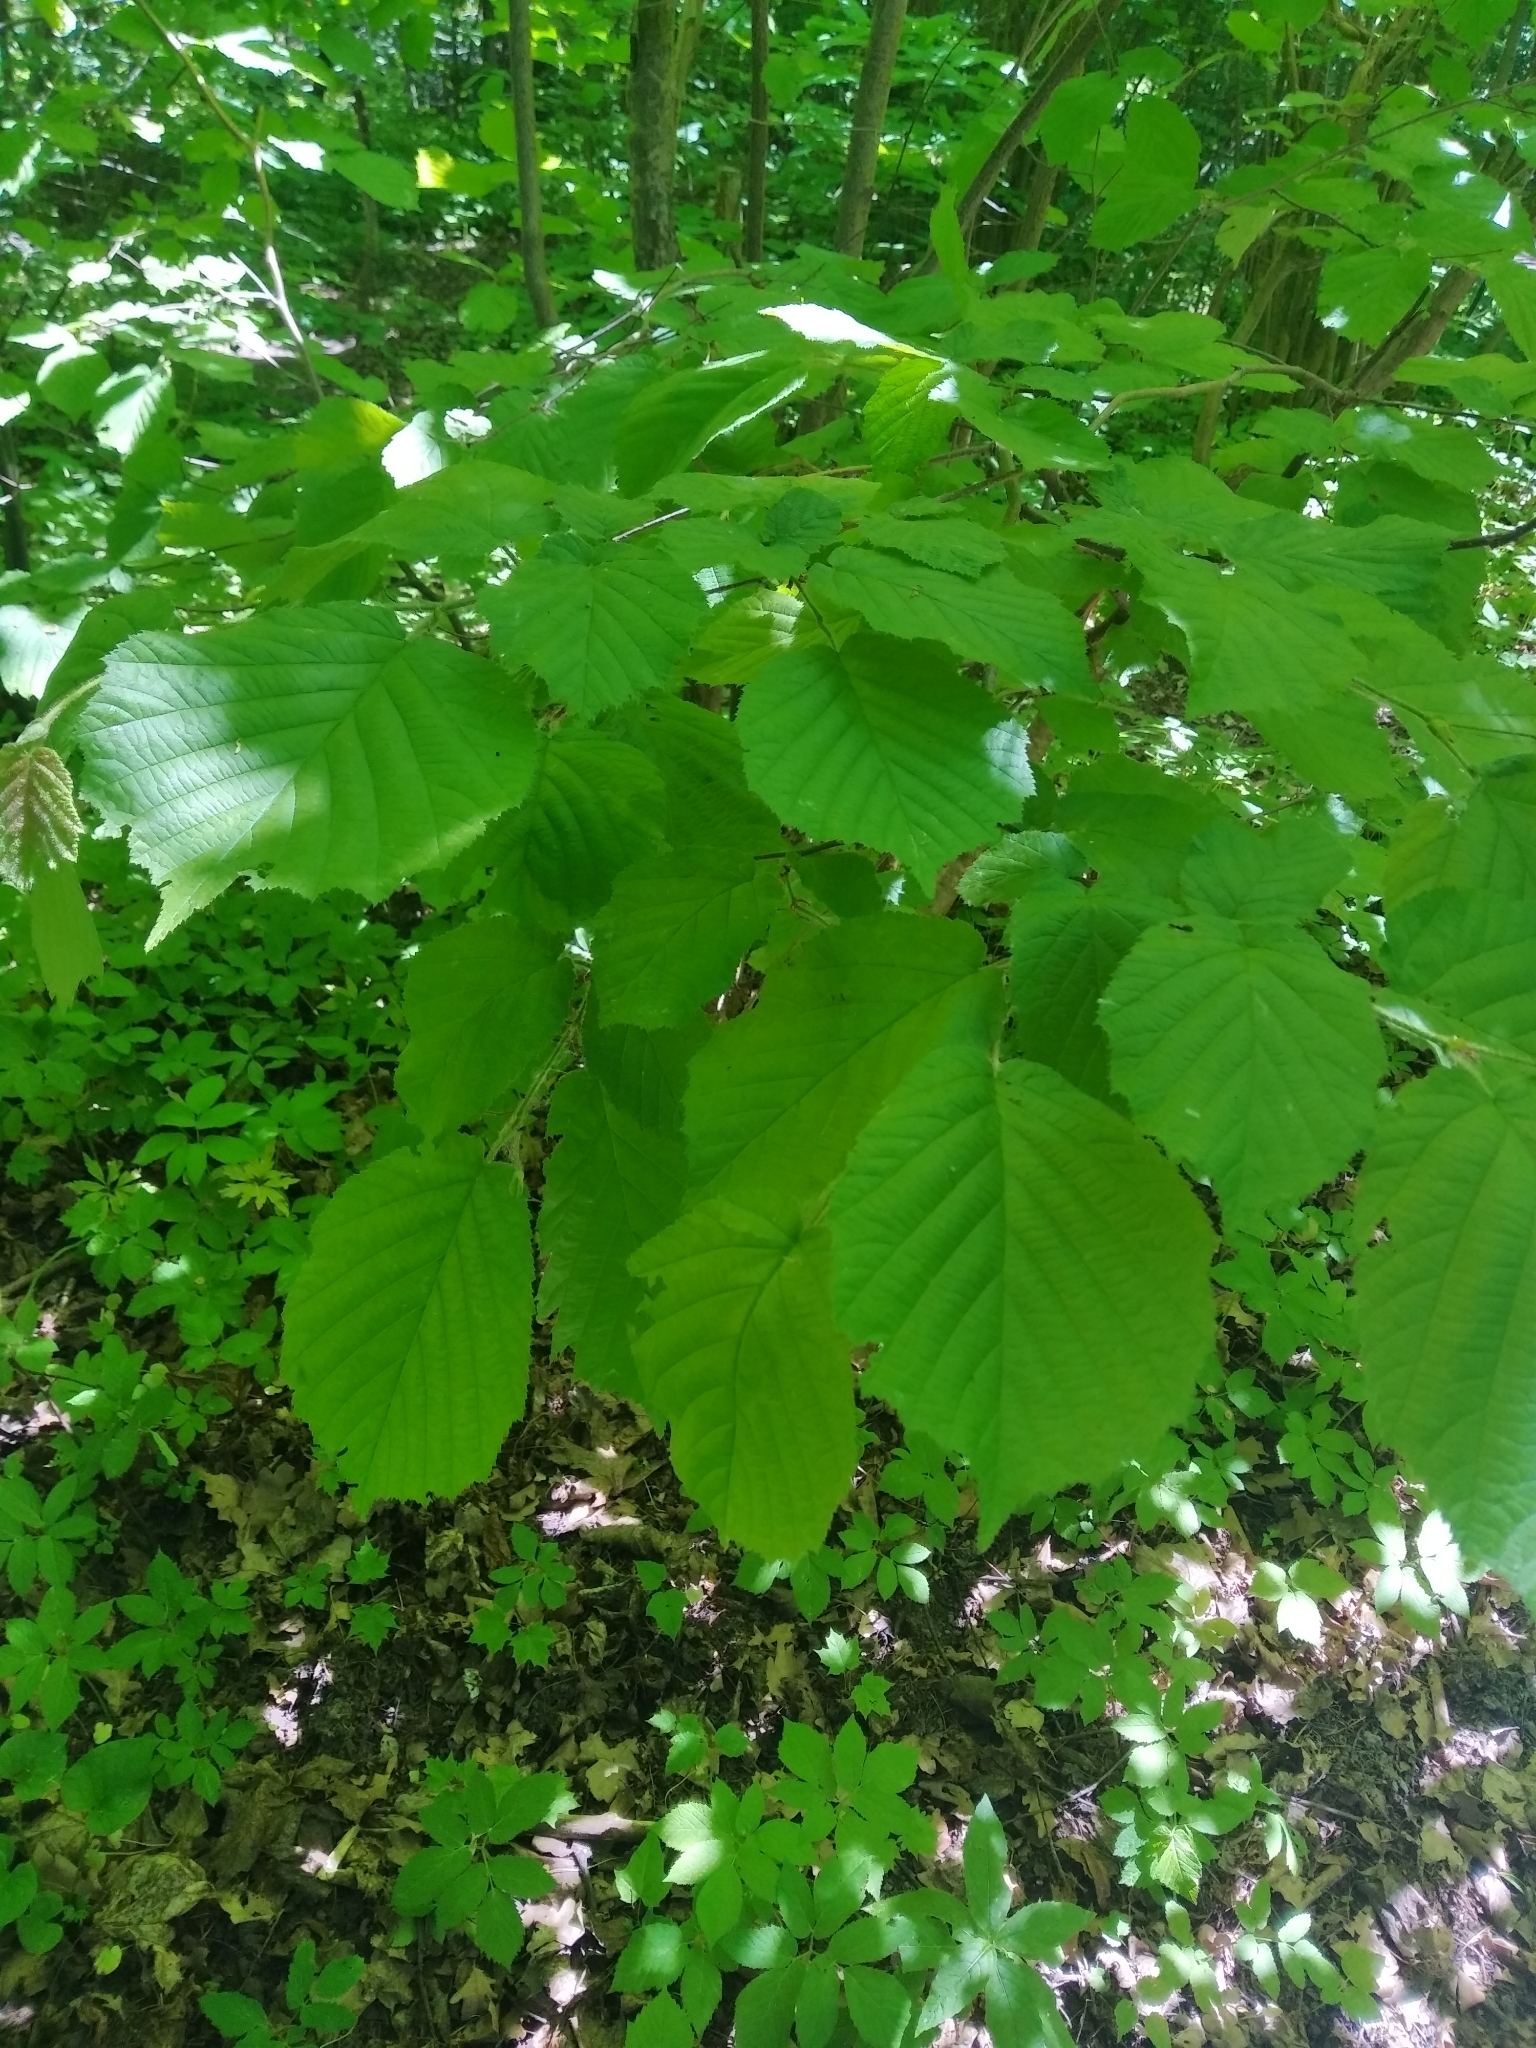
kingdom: Plantae
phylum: Tracheophyta
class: Magnoliopsida
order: Fagales
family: Betulaceae
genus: Corylus
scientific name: Corylus avellana
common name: European hazel
